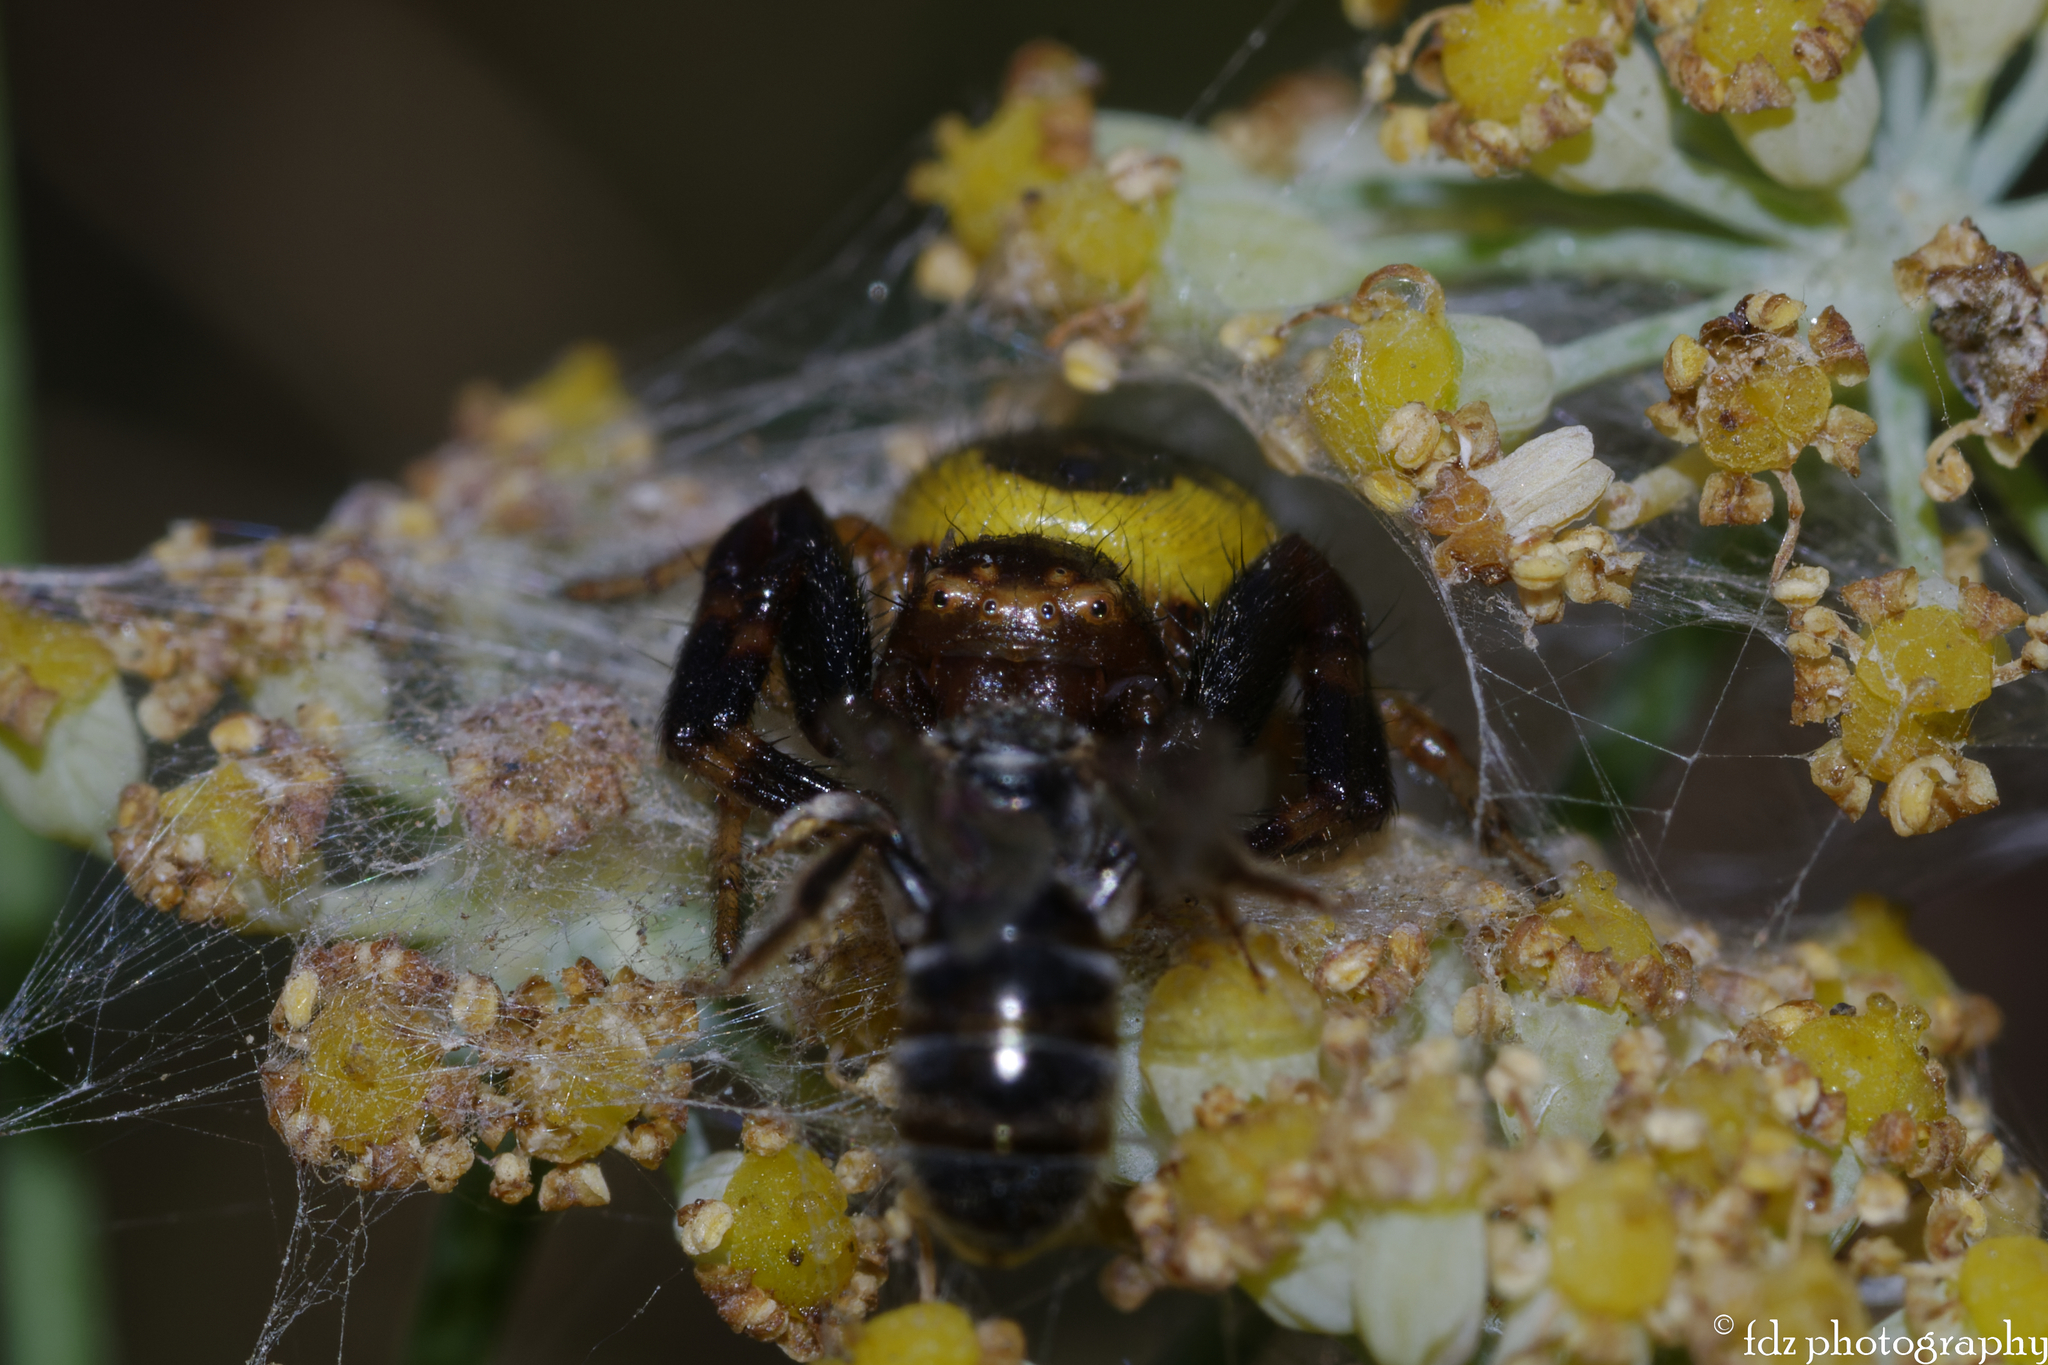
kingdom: Animalia
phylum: Arthropoda
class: Arachnida
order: Araneae
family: Thomisidae
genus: Synema
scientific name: Synema globosum
